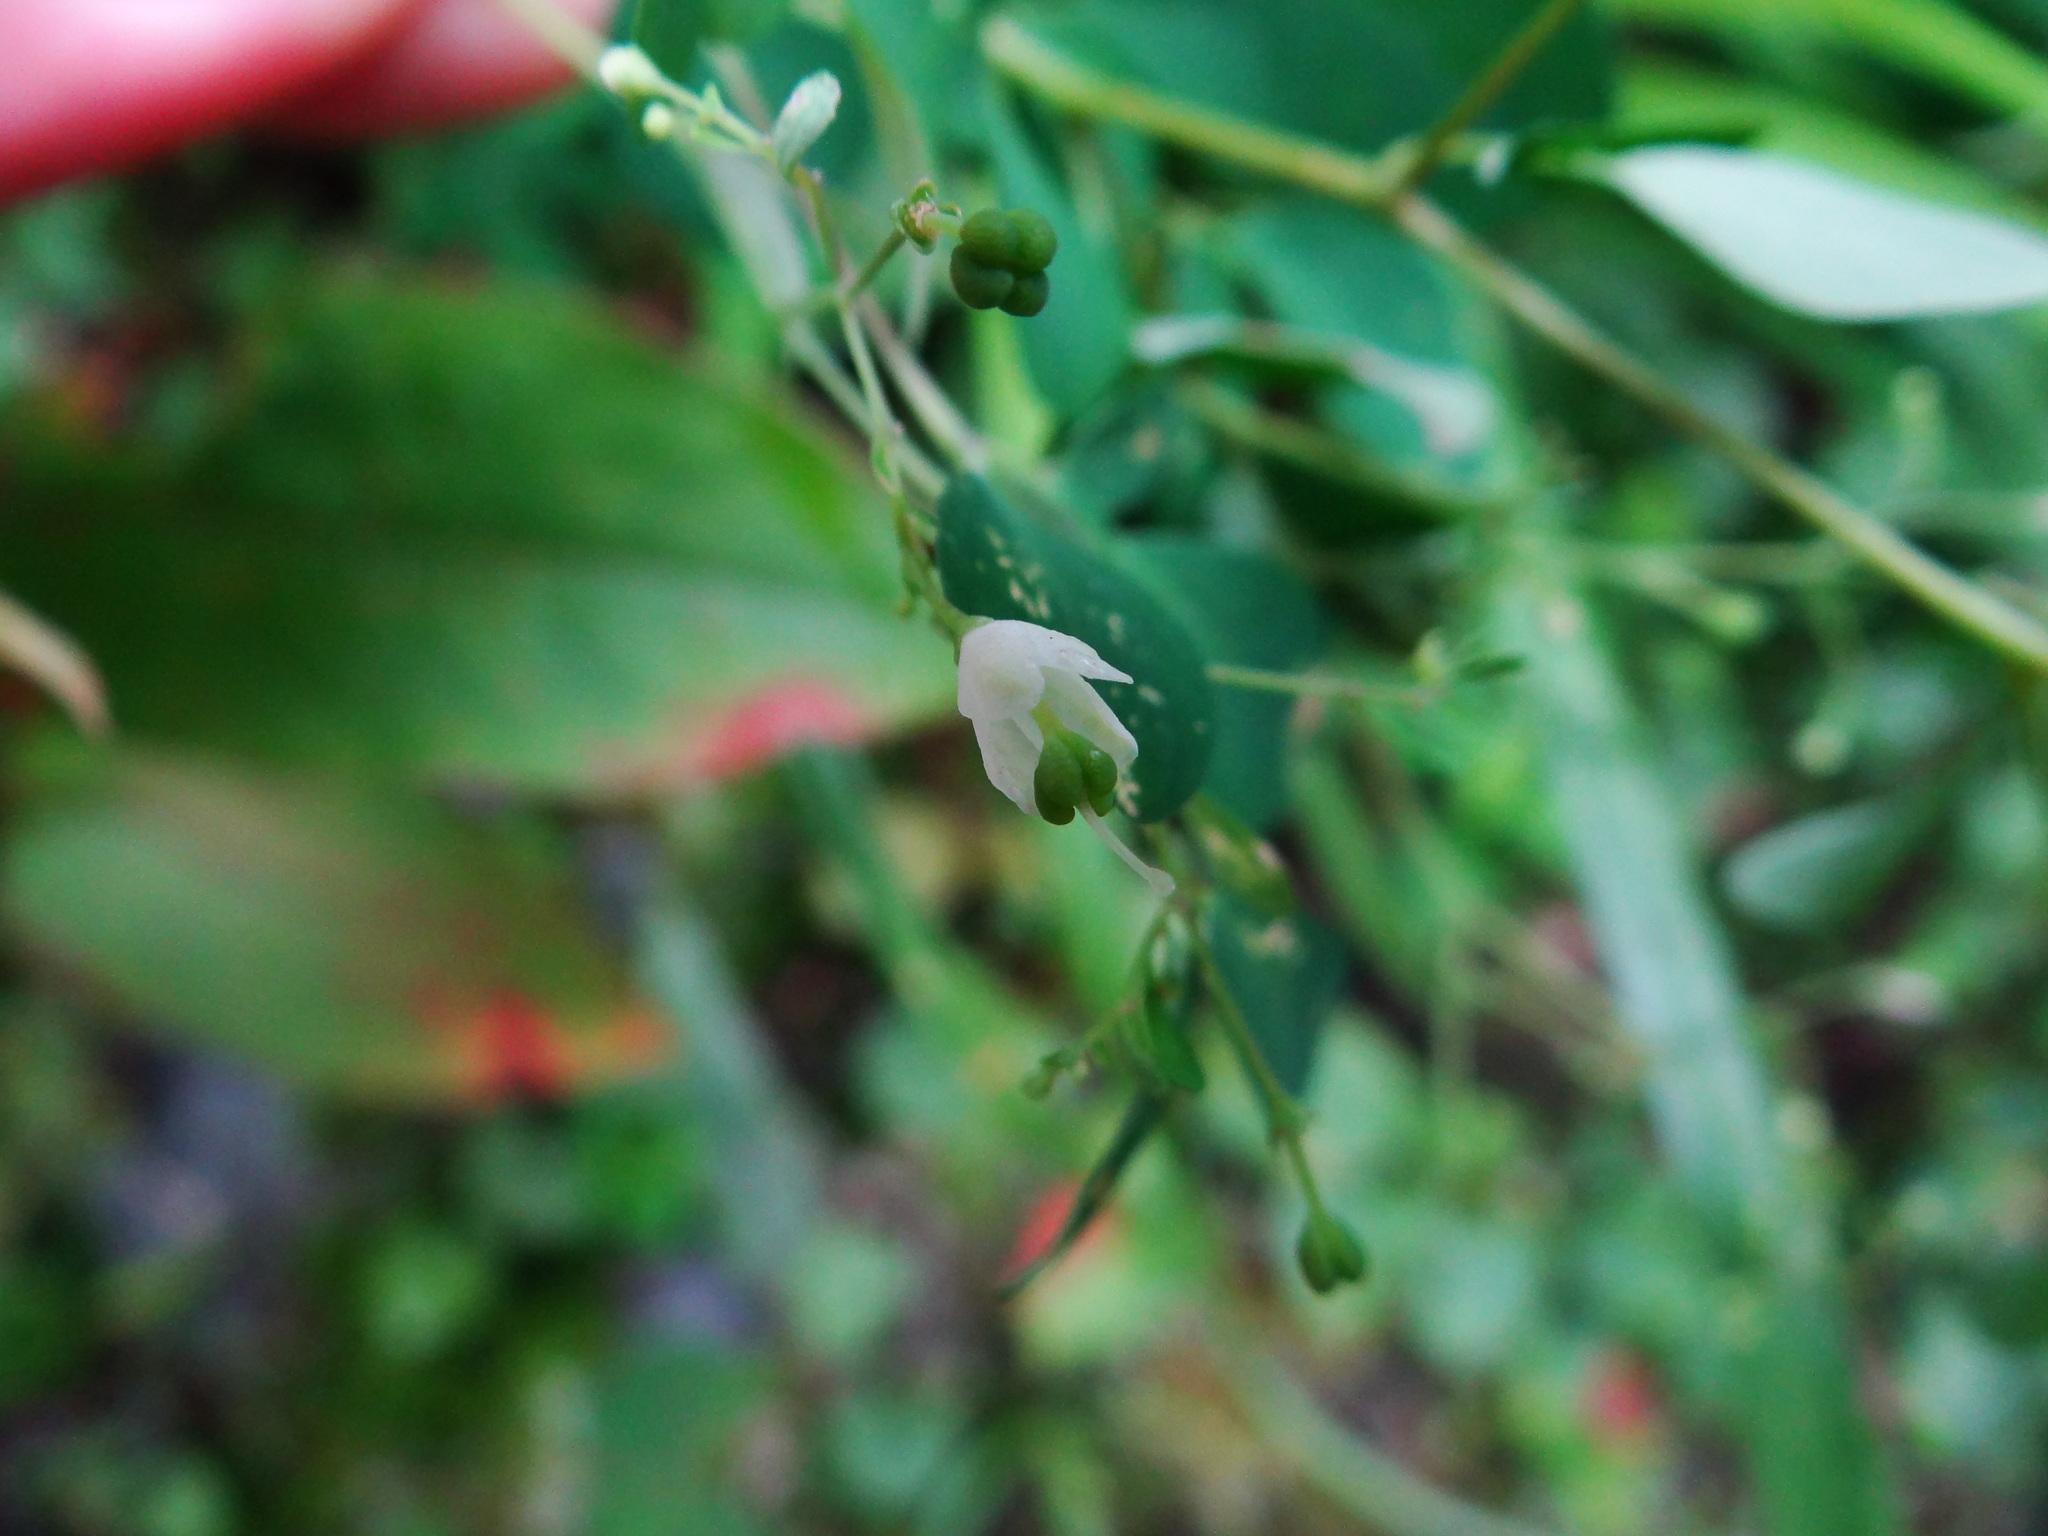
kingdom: Plantae
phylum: Tracheophyta
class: Magnoliopsida
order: Sapindales
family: Rutaceae
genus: Boenninghausenia
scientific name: Boenninghausenia albiflora
